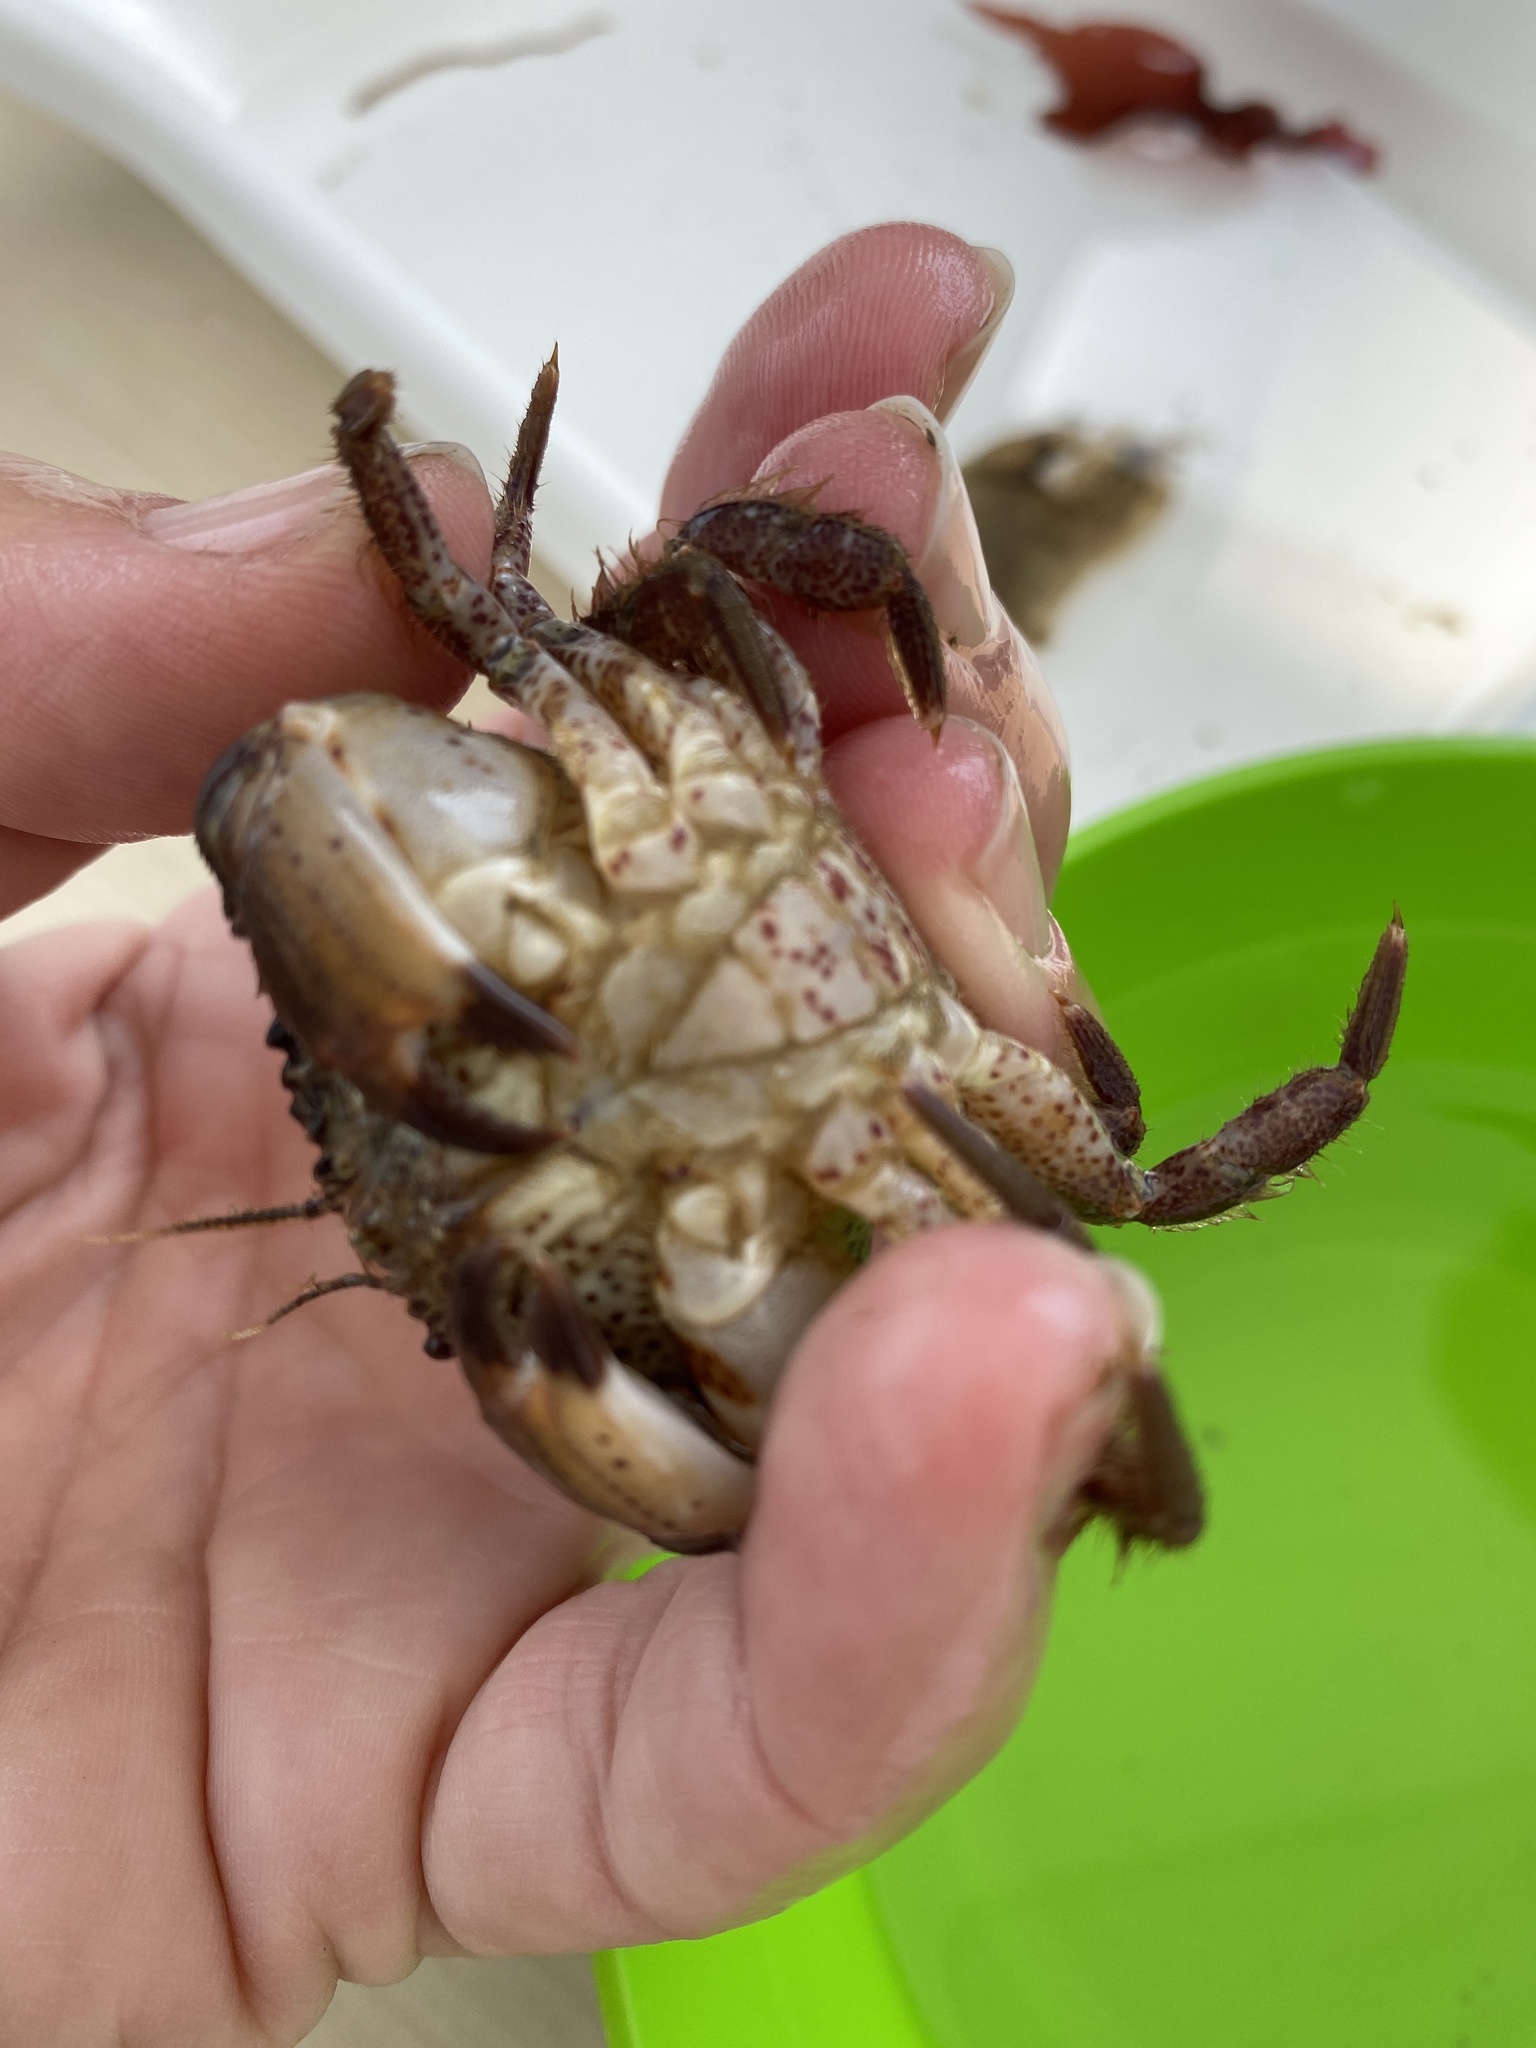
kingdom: Animalia
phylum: Arthropoda
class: Malacostraca
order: Decapoda
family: Cancridae
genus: Romaleon
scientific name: Romaleon antennarium
